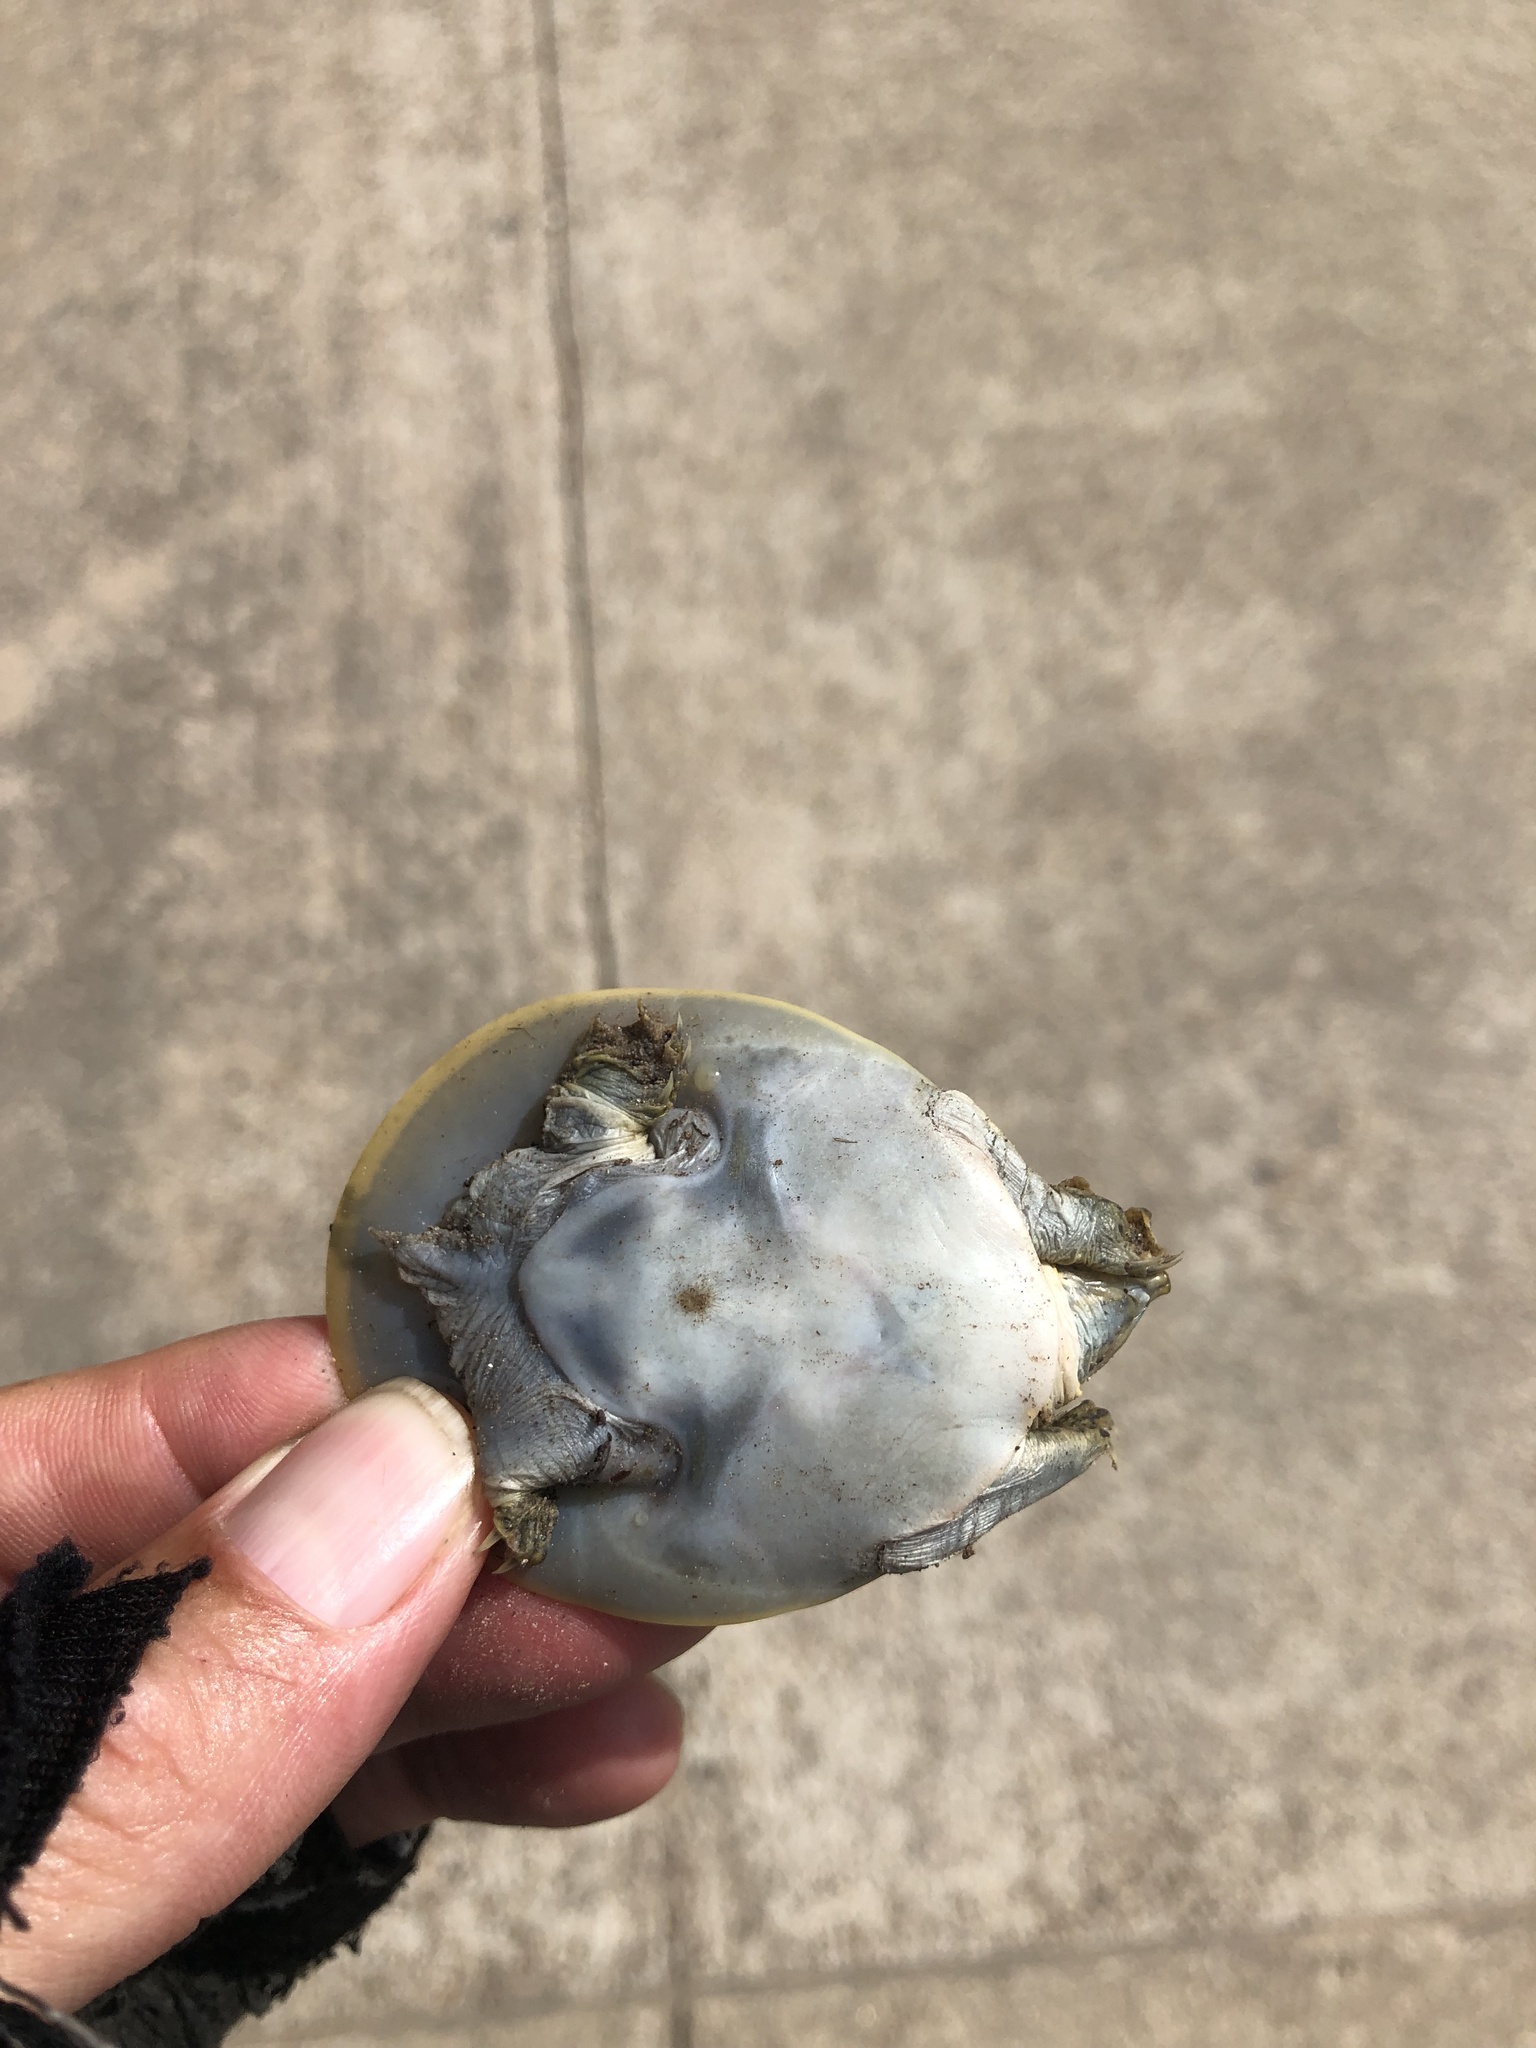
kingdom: Animalia
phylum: Chordata
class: Testudines
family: Trionychidae
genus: Apalone
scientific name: Apalone spinifera
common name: Spiny softshell turtle
